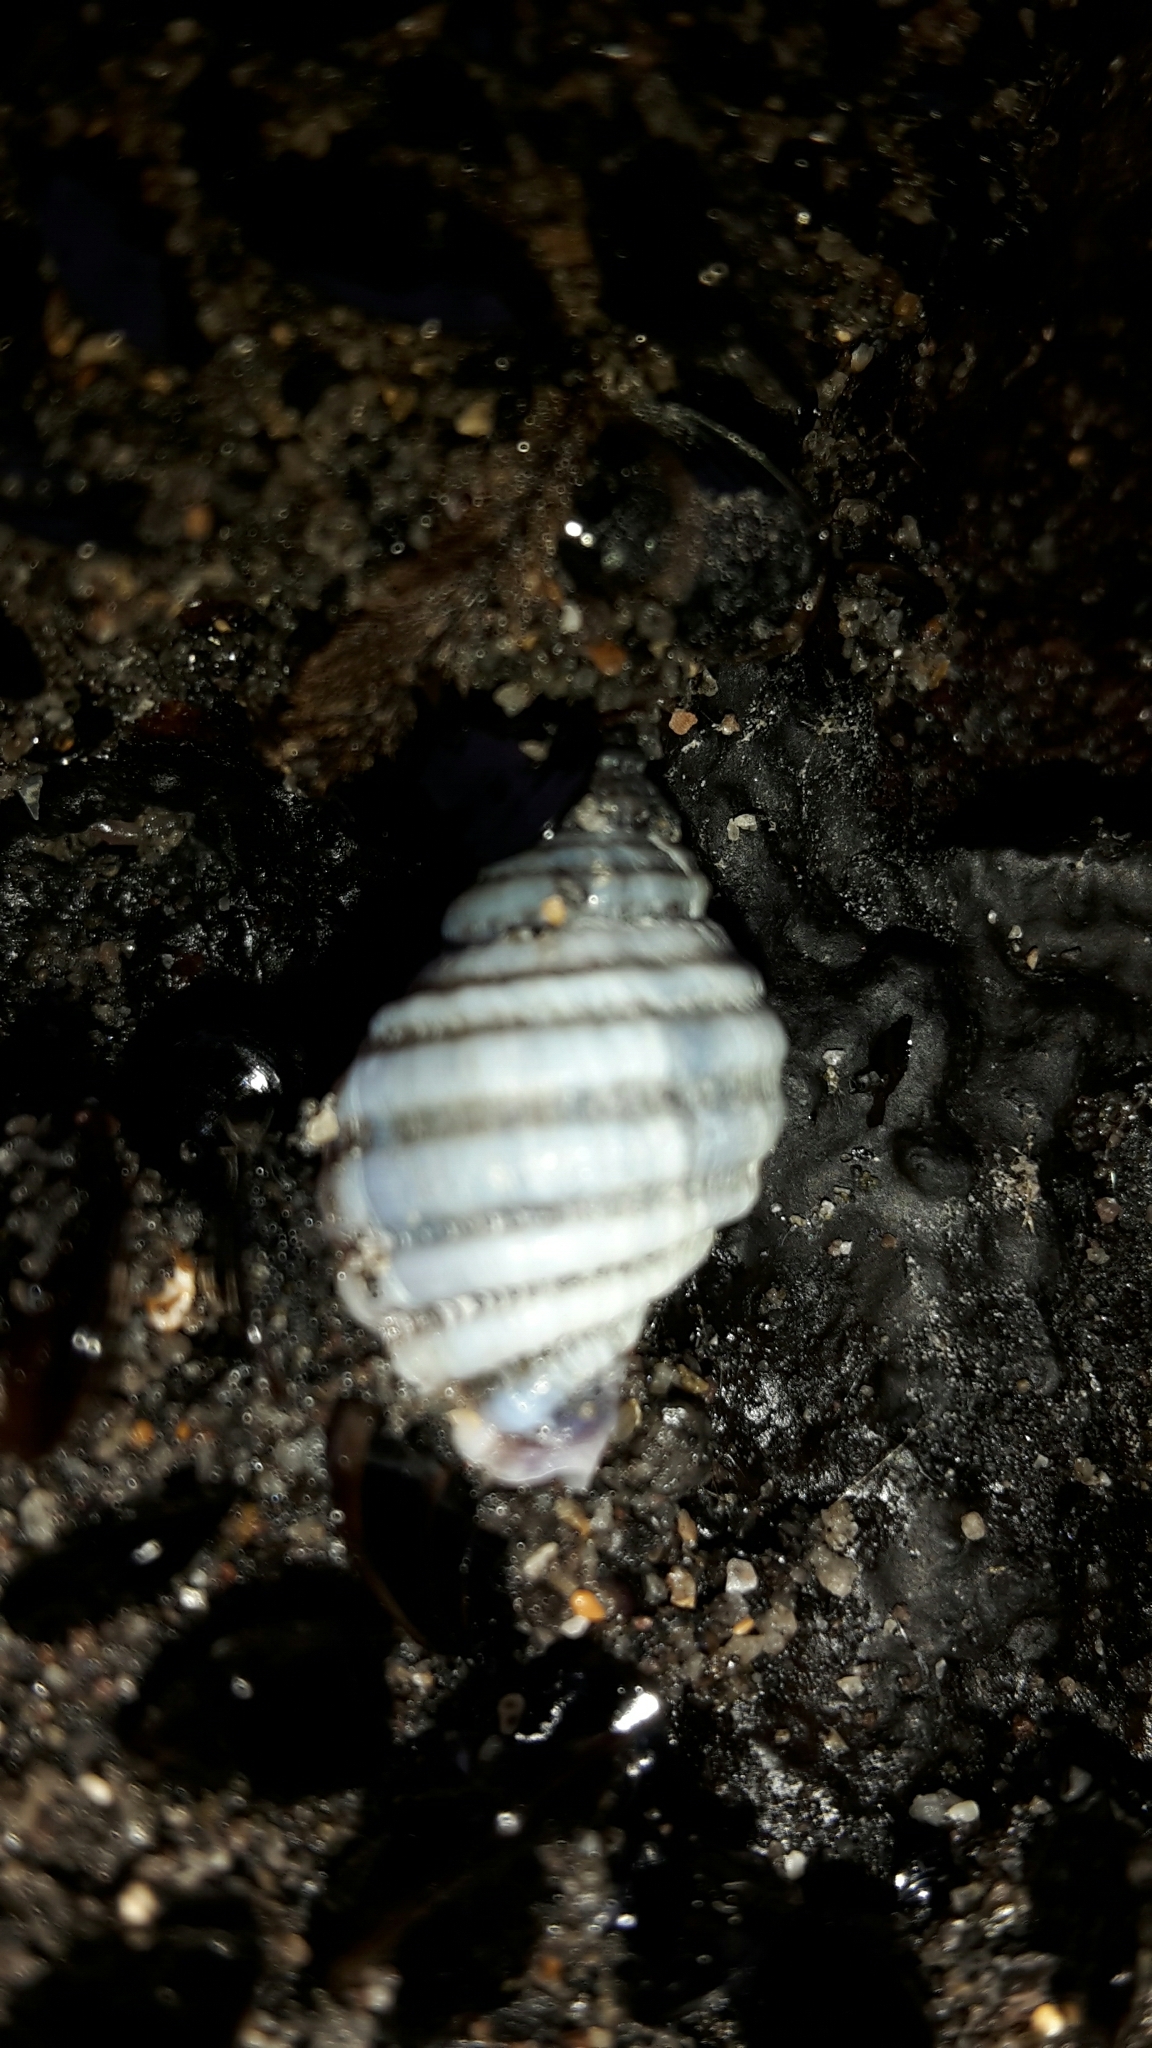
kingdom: Animalia
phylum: Mollusca
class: Gastropoda
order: Neogastropoda
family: Muricidae
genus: Paratrophon
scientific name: Paratrophon cheesemani
